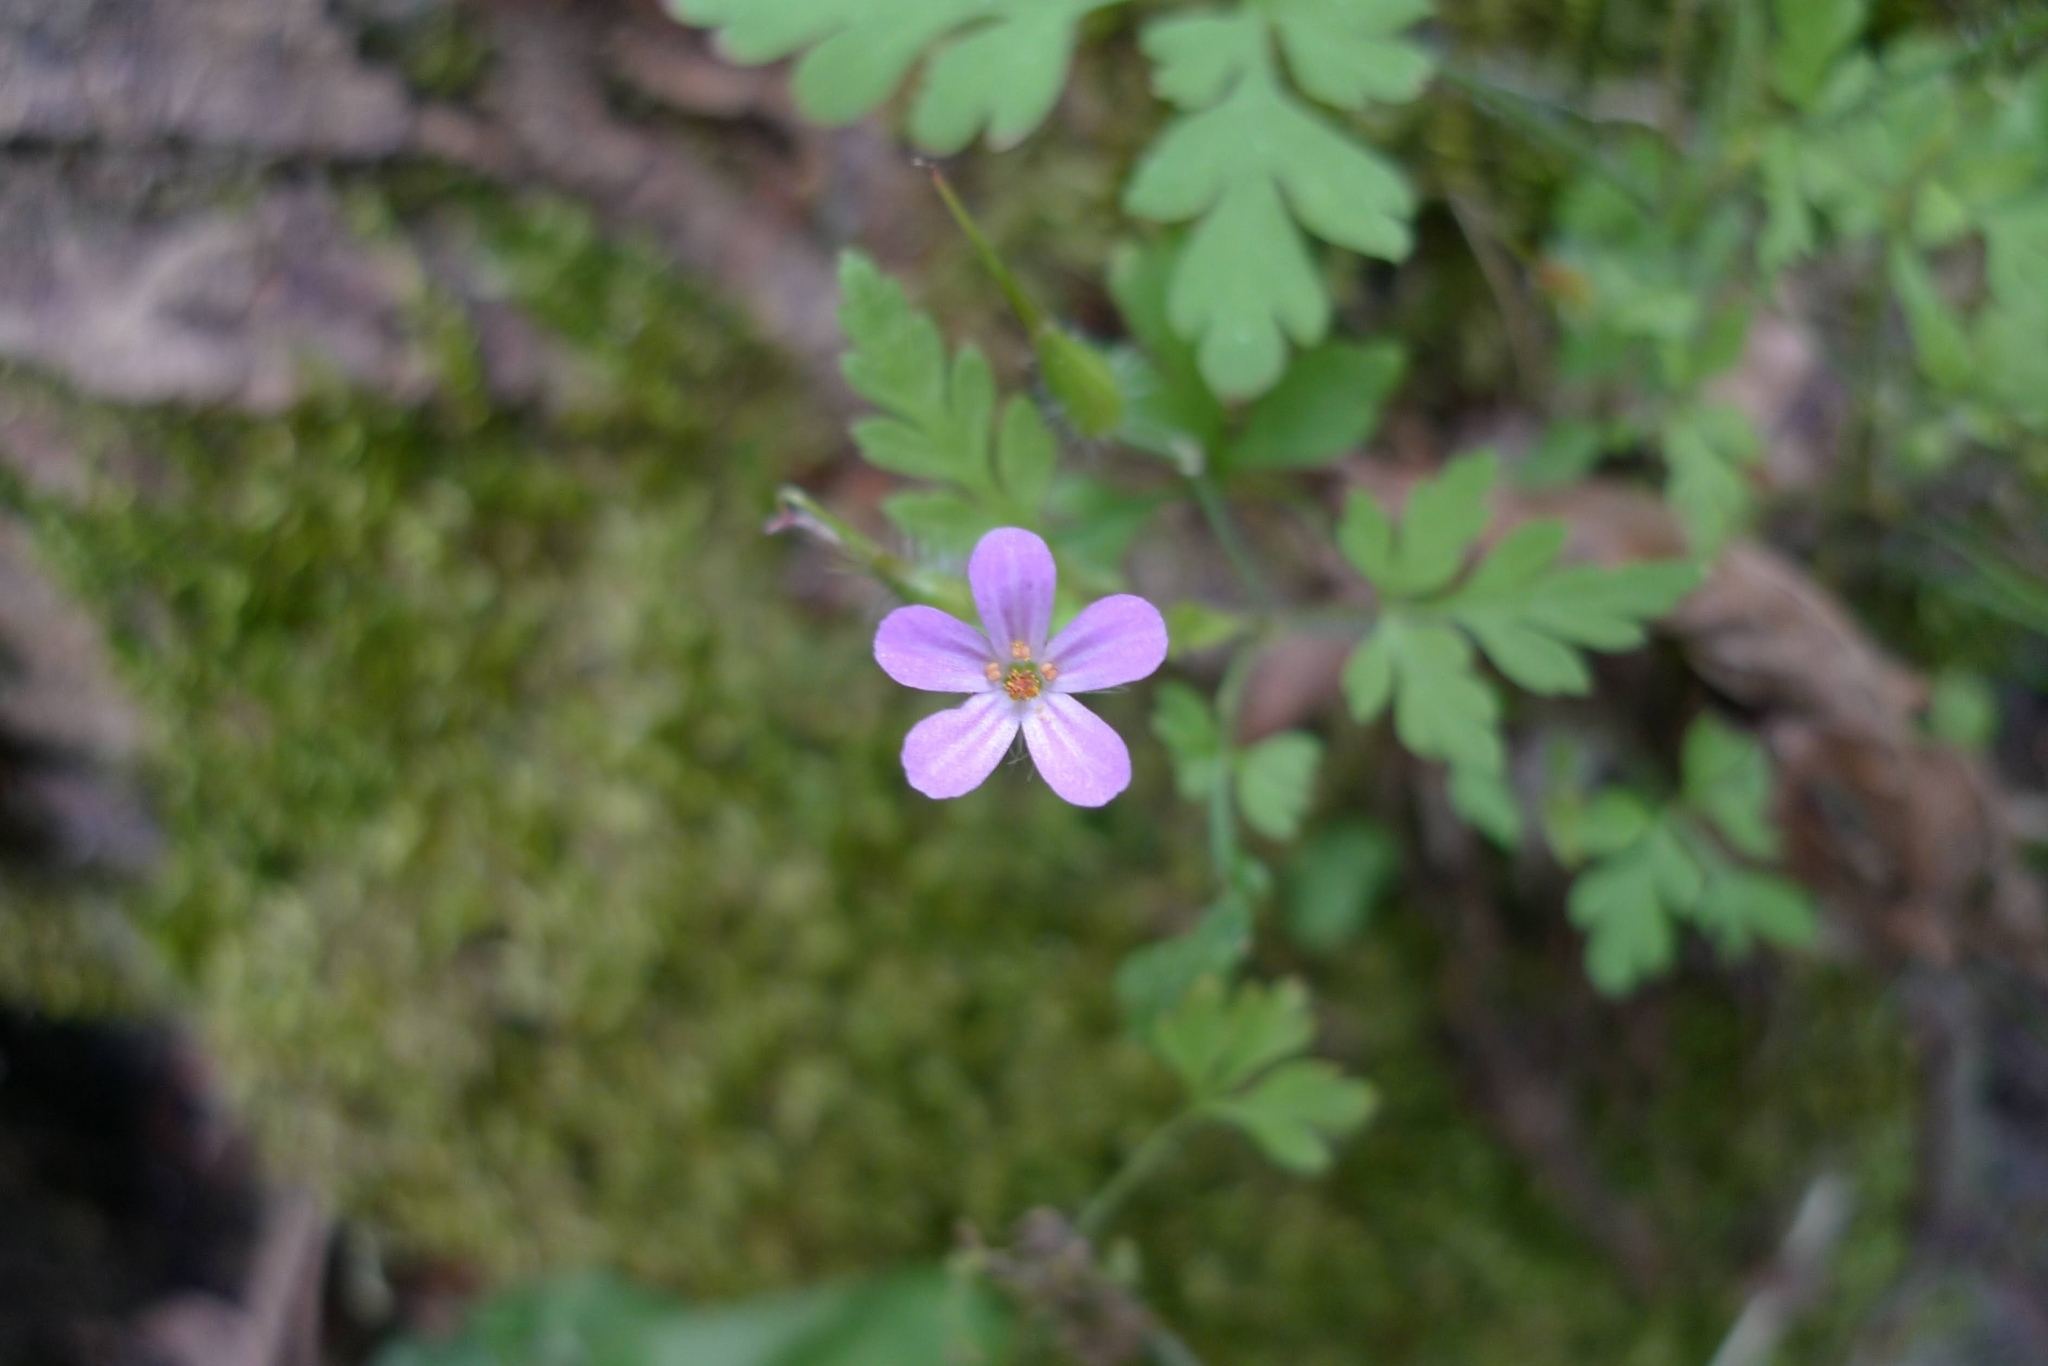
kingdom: Plantae
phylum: Tracheophyta
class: Magnoliopsida
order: Geraniales
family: Geraniaceae
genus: Geranium
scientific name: Geranium robertianum
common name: Herb-robert
